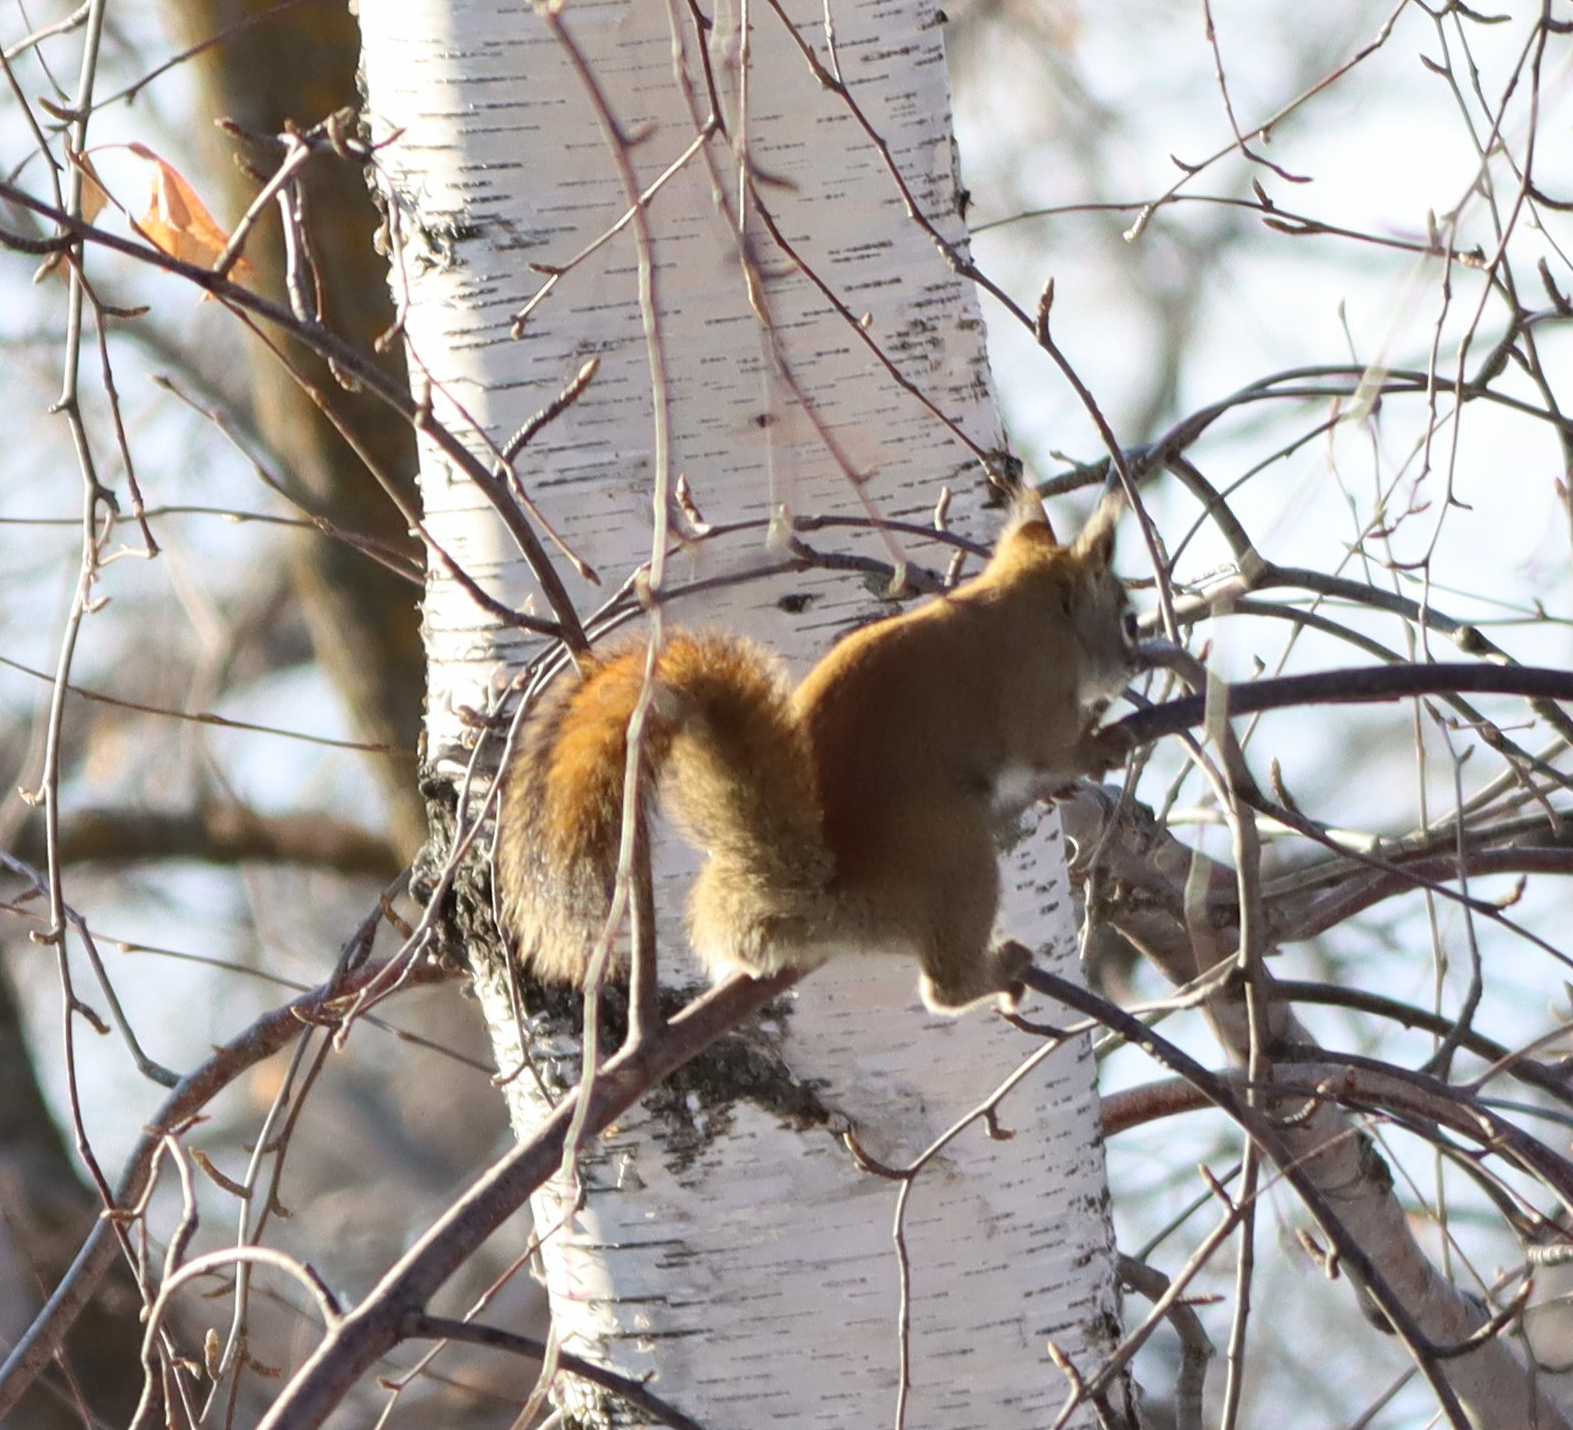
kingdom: Animalia
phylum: Chordata
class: Mammalia
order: Rodentia
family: Sciuridae
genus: Tamiasciurus
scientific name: Tamiasciurus hudsonicus
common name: Red squirrel
